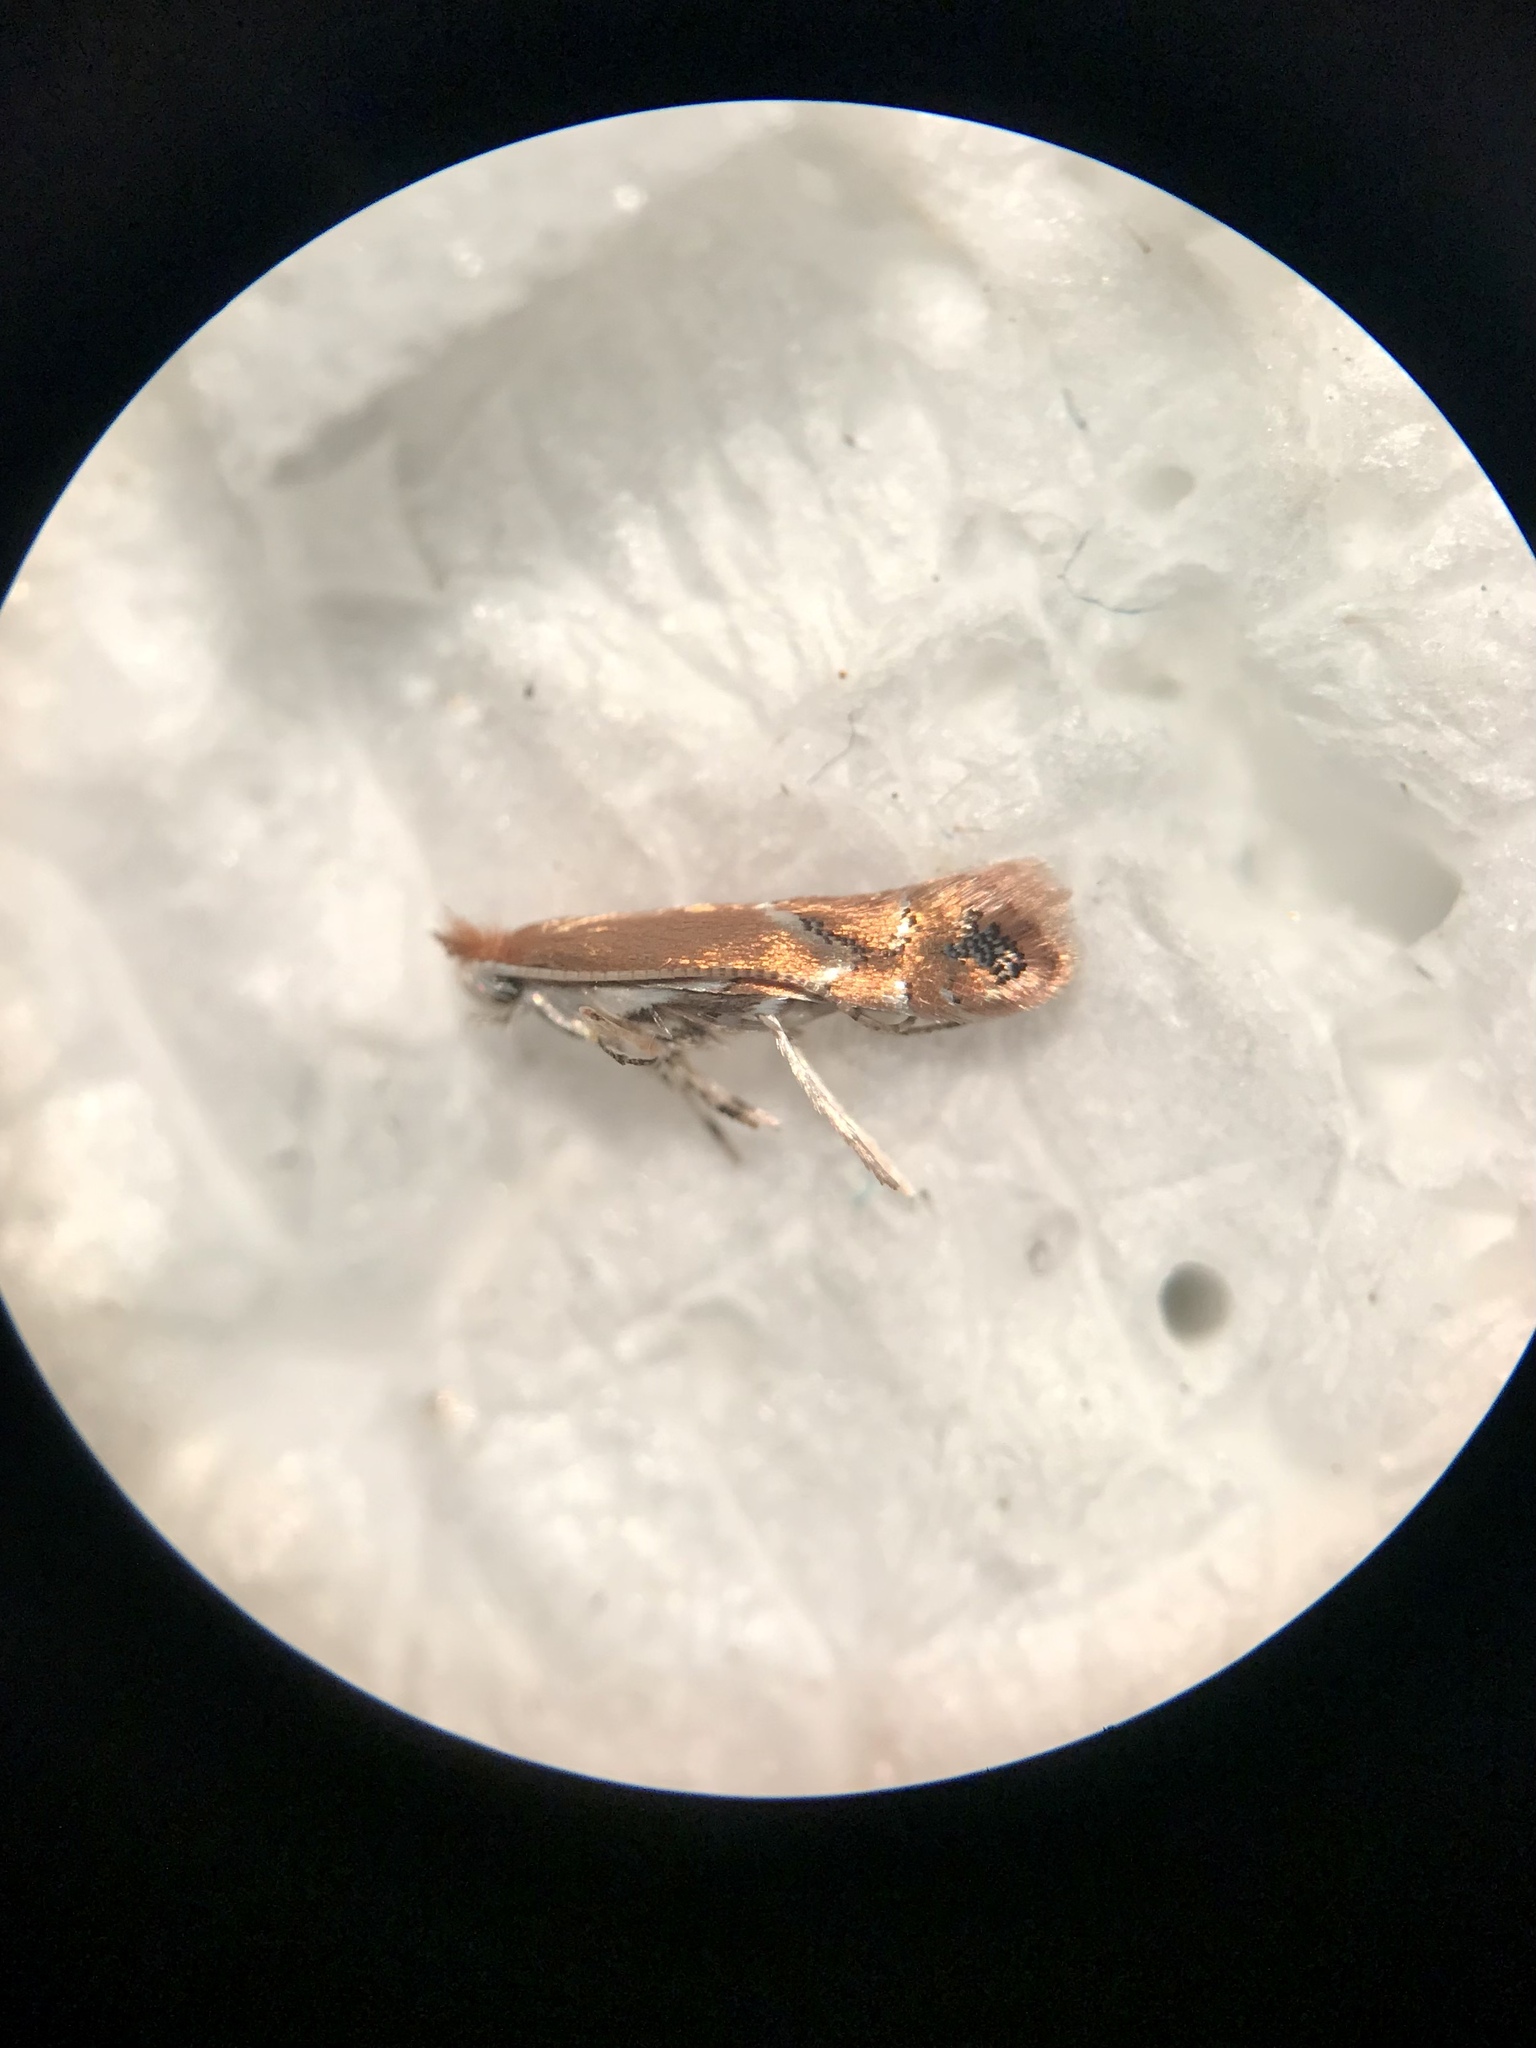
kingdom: Animalia
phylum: Arthropoda
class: Insecta
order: Lepidoptera
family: Gracillariidae
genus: Cameraria
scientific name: Cameraria platanoidiella
